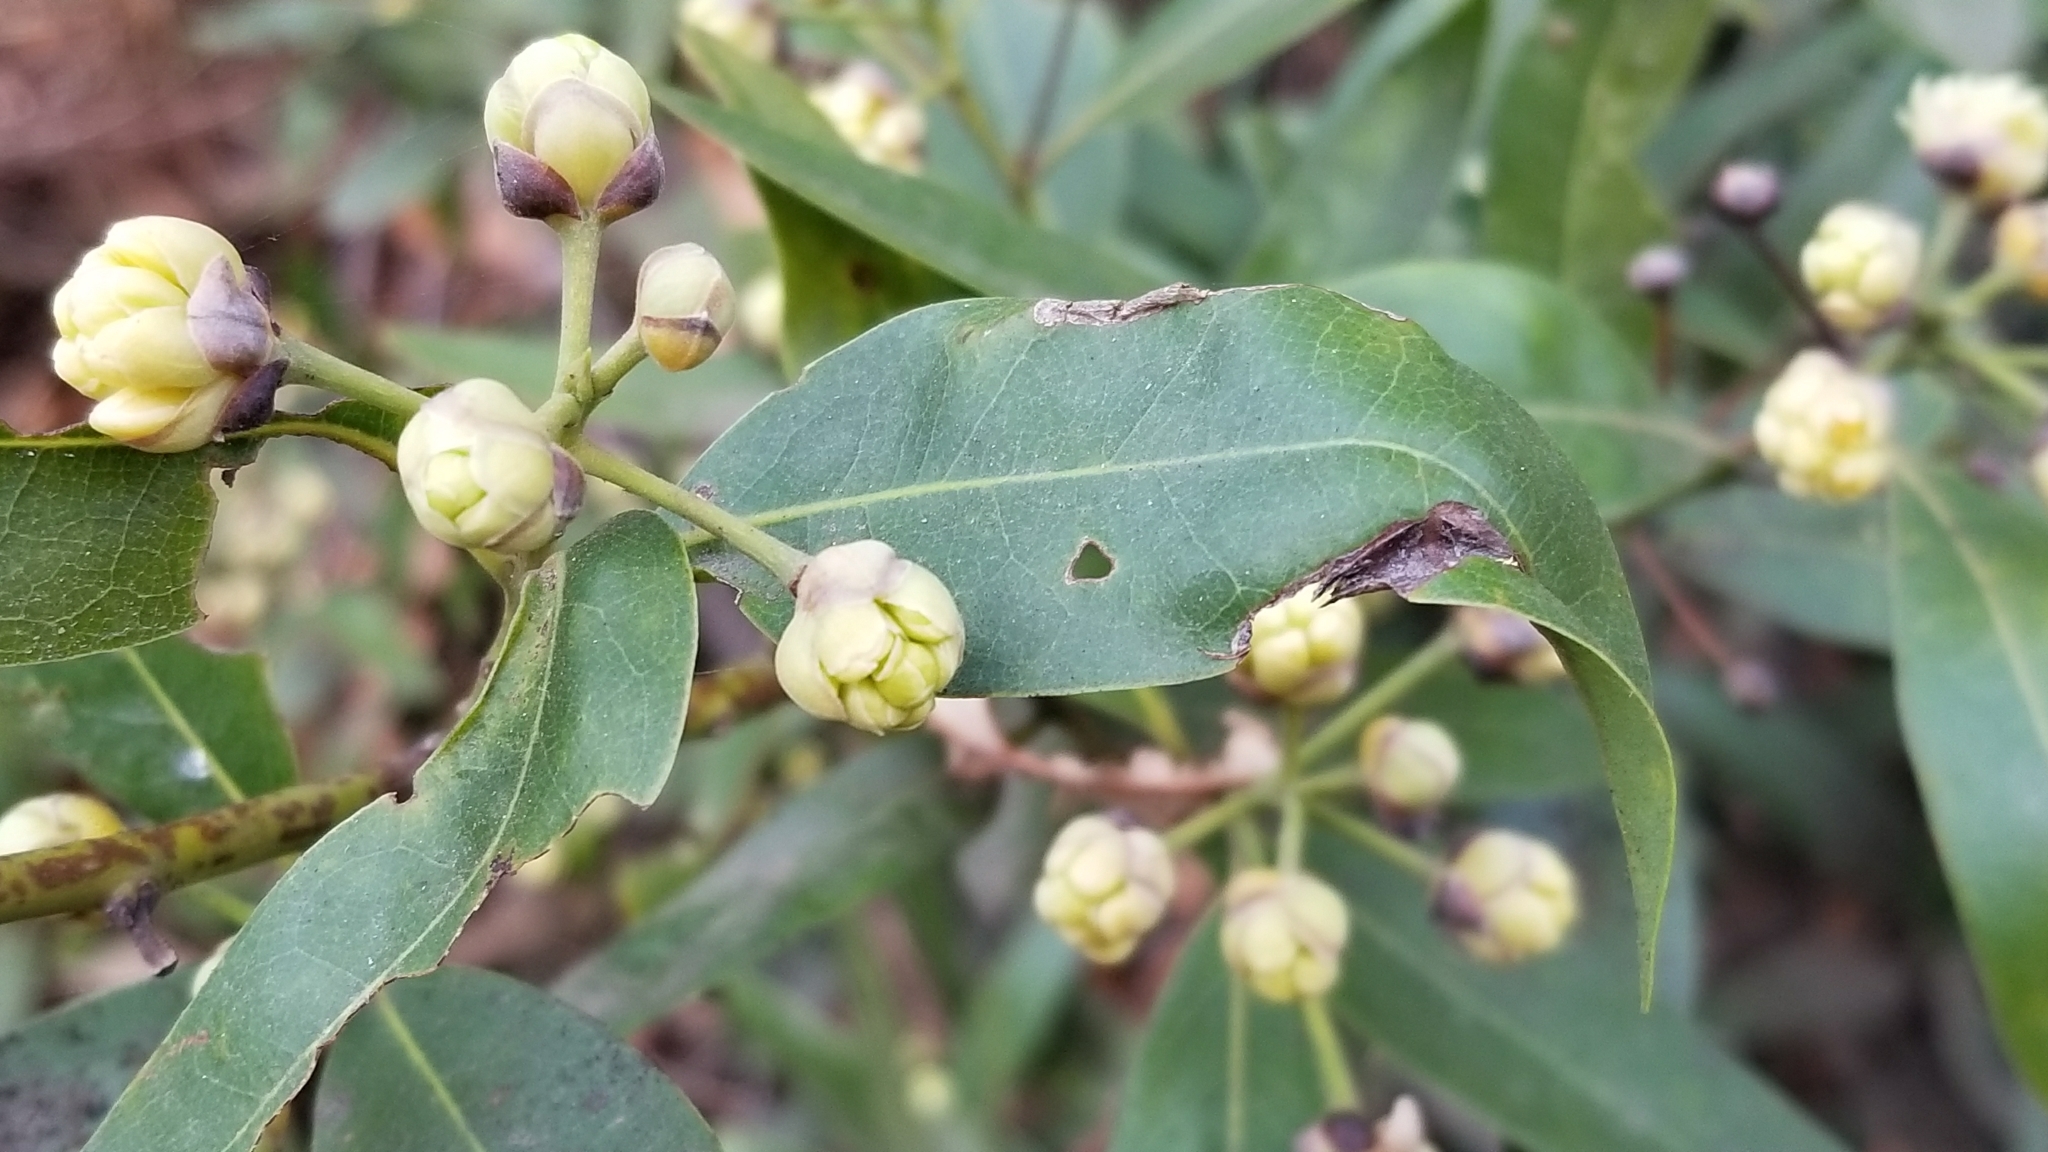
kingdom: Plantae
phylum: Tracheophyta
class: Magnoliopsida
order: Laurales
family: Lauraceae
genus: Umbellularia
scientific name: Umbellularia californica
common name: California bay
